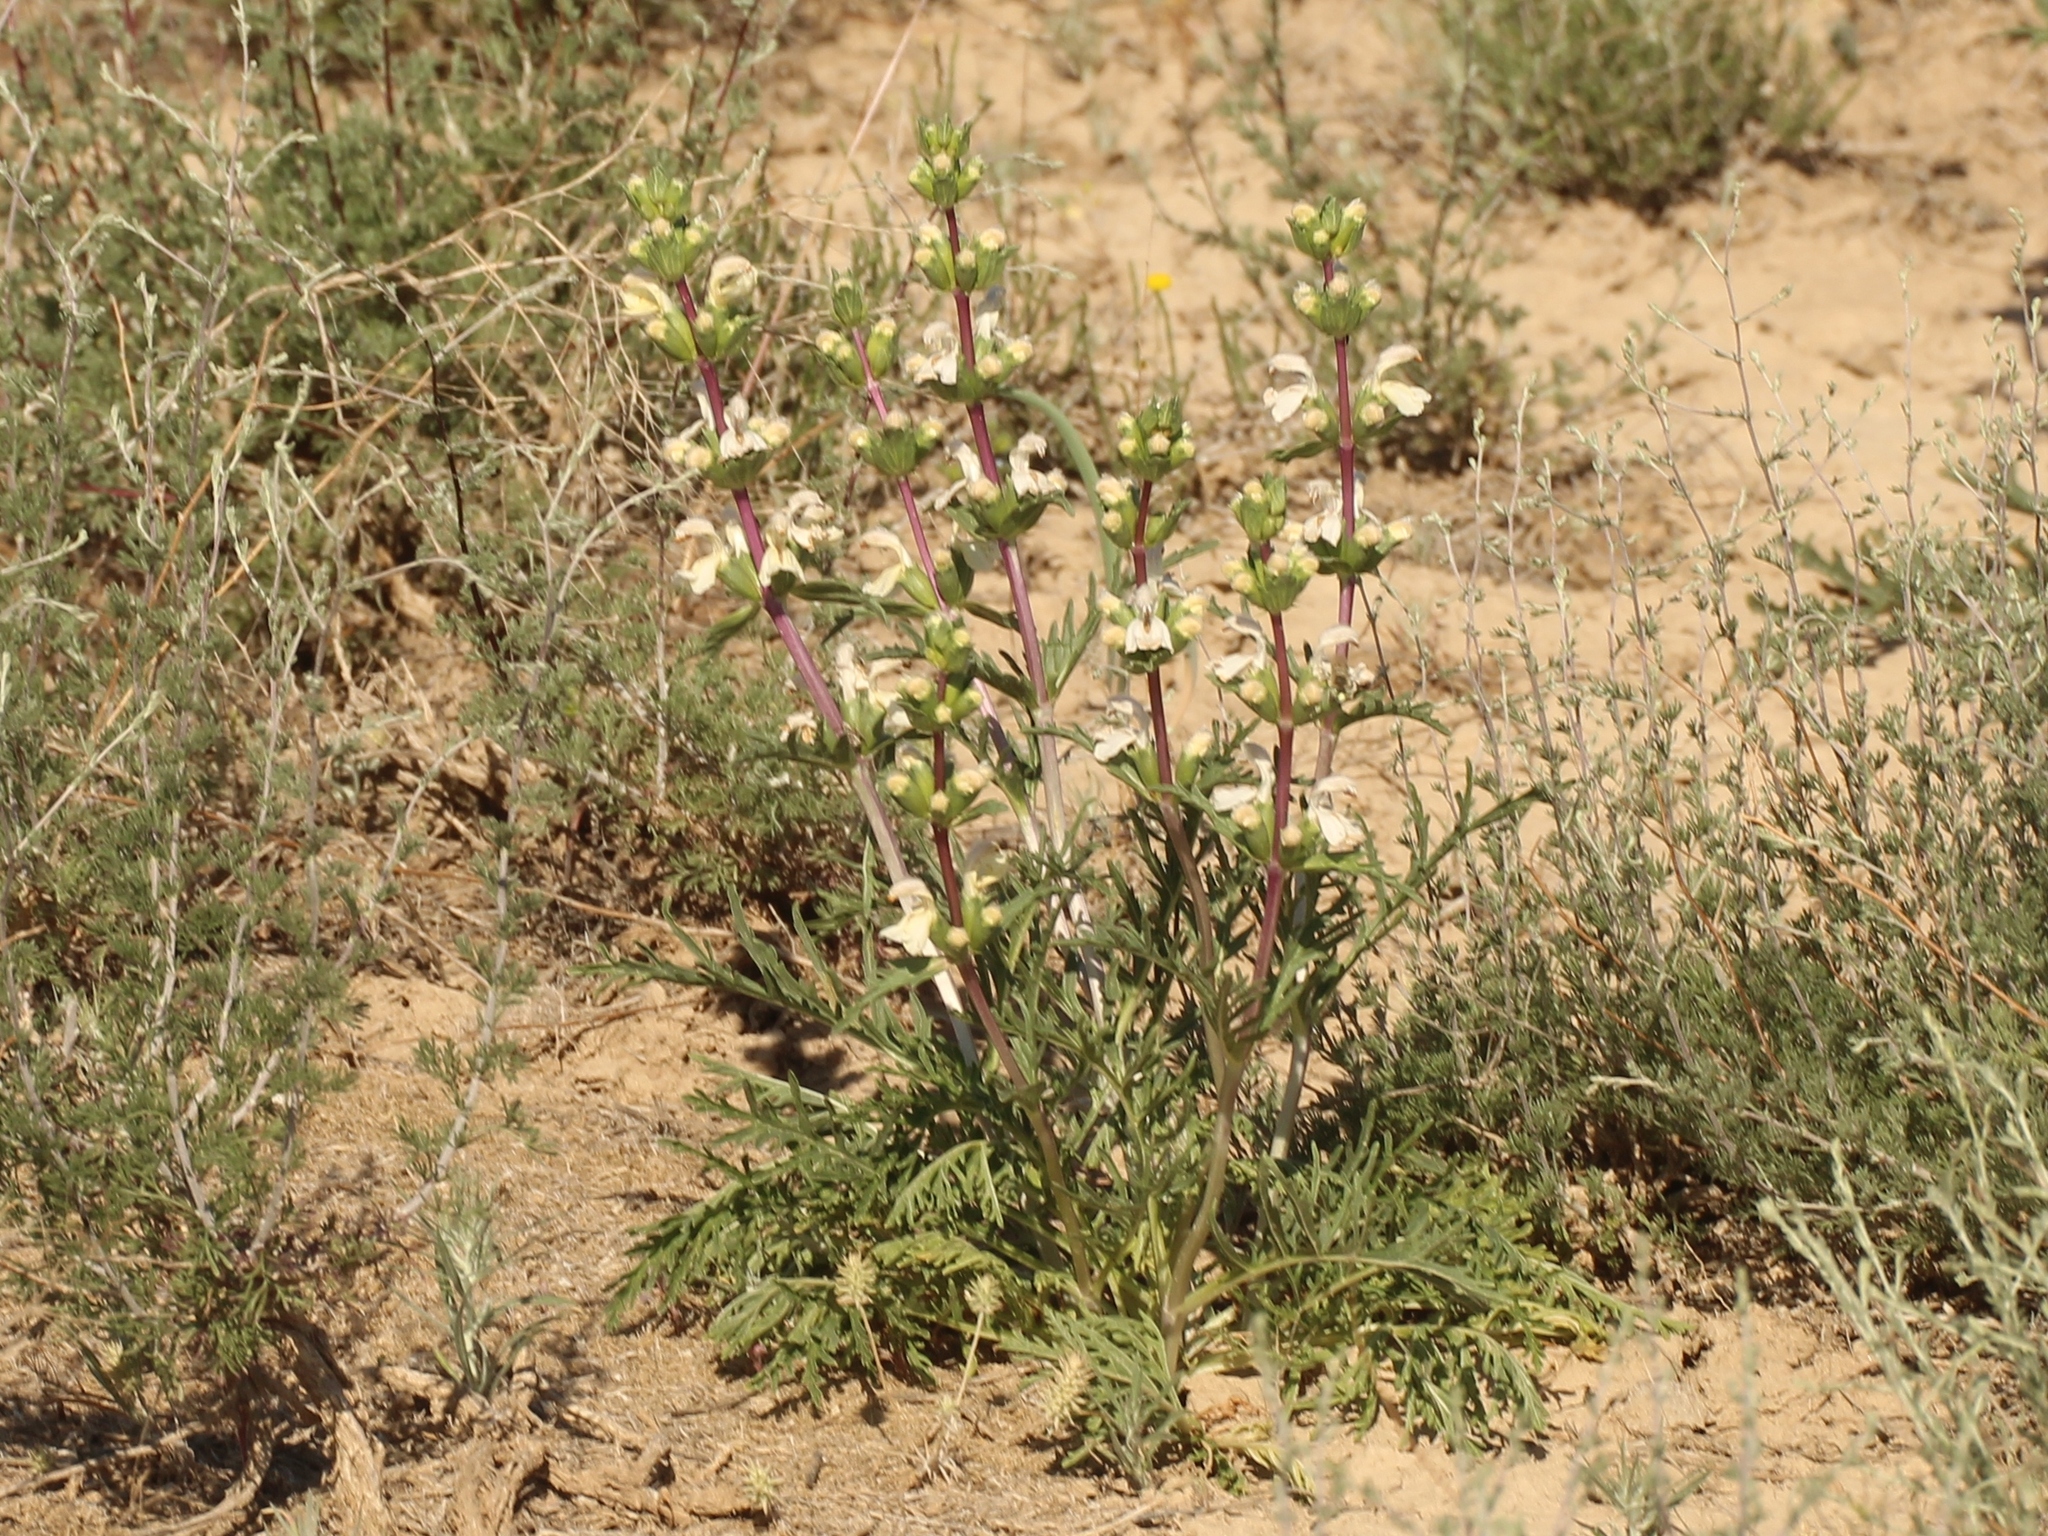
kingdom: Plantae
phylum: Tracheophyta
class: Magnoliopsida
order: Lamiales
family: Lamiaceae
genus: Phlomoides
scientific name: Phlomoides septentrionalis
